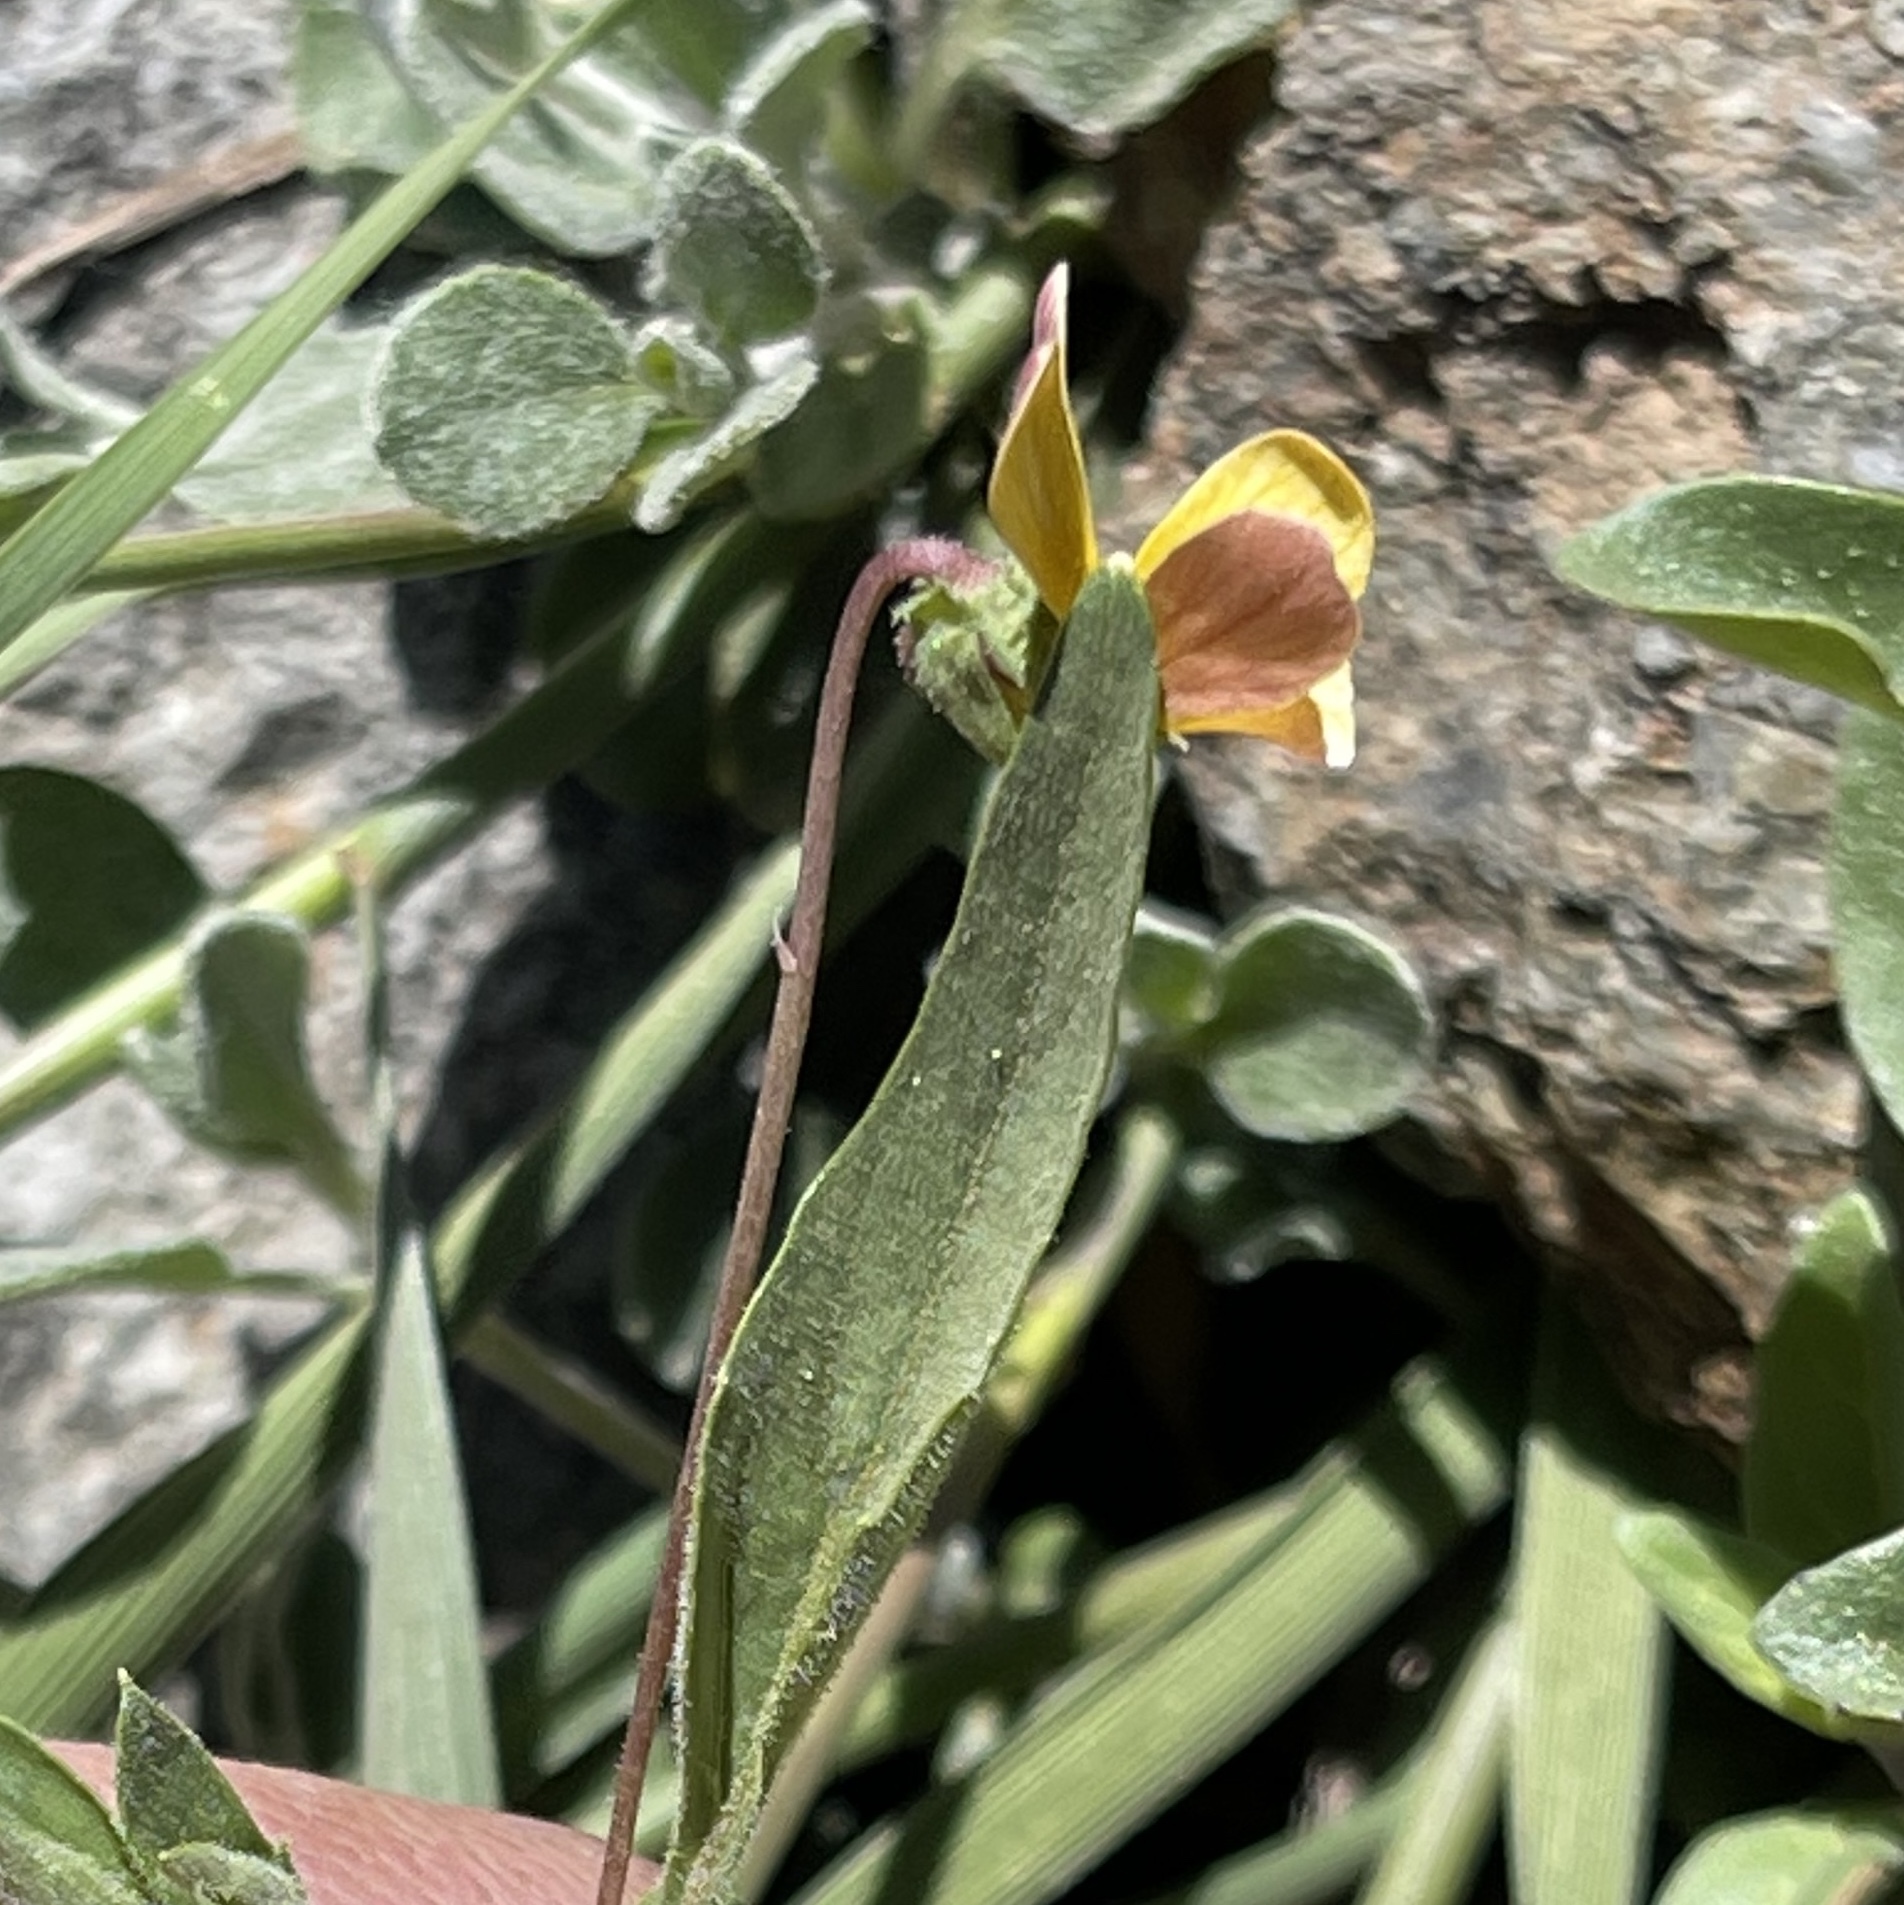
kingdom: Plantae
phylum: Tracheophyta
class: Magnoliopsida
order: Malpighiales
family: Violaceae
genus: Viola
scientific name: Viola pinetorum
